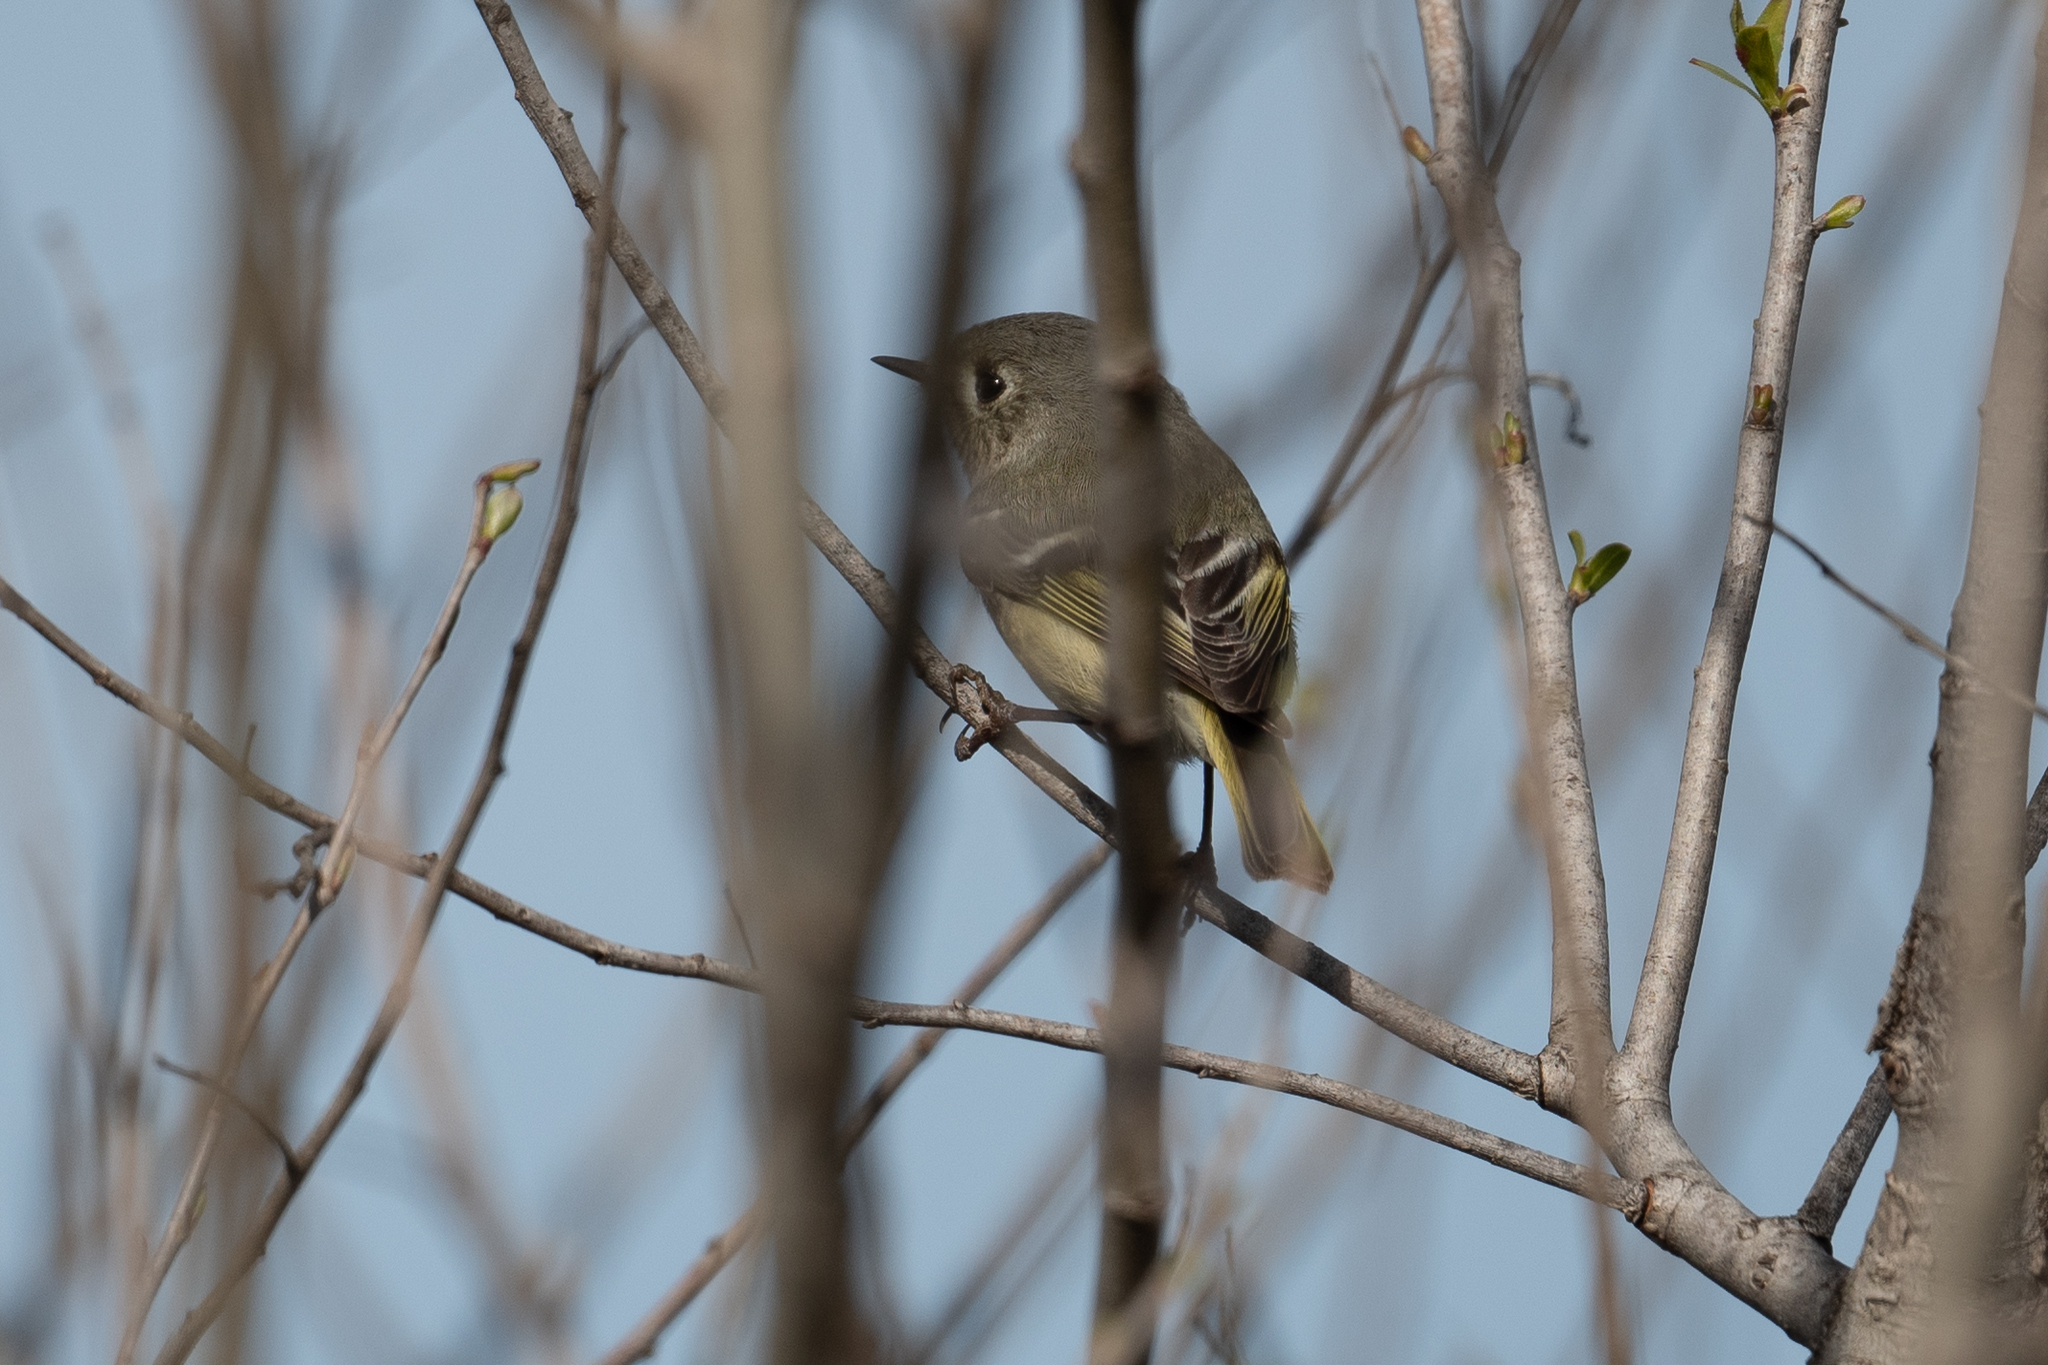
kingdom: Animalia
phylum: Chordata
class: Aves
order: Passeriformes
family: Regulidae
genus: Regulus
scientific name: Regulus calendula
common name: Ruby-crowned kinglet
